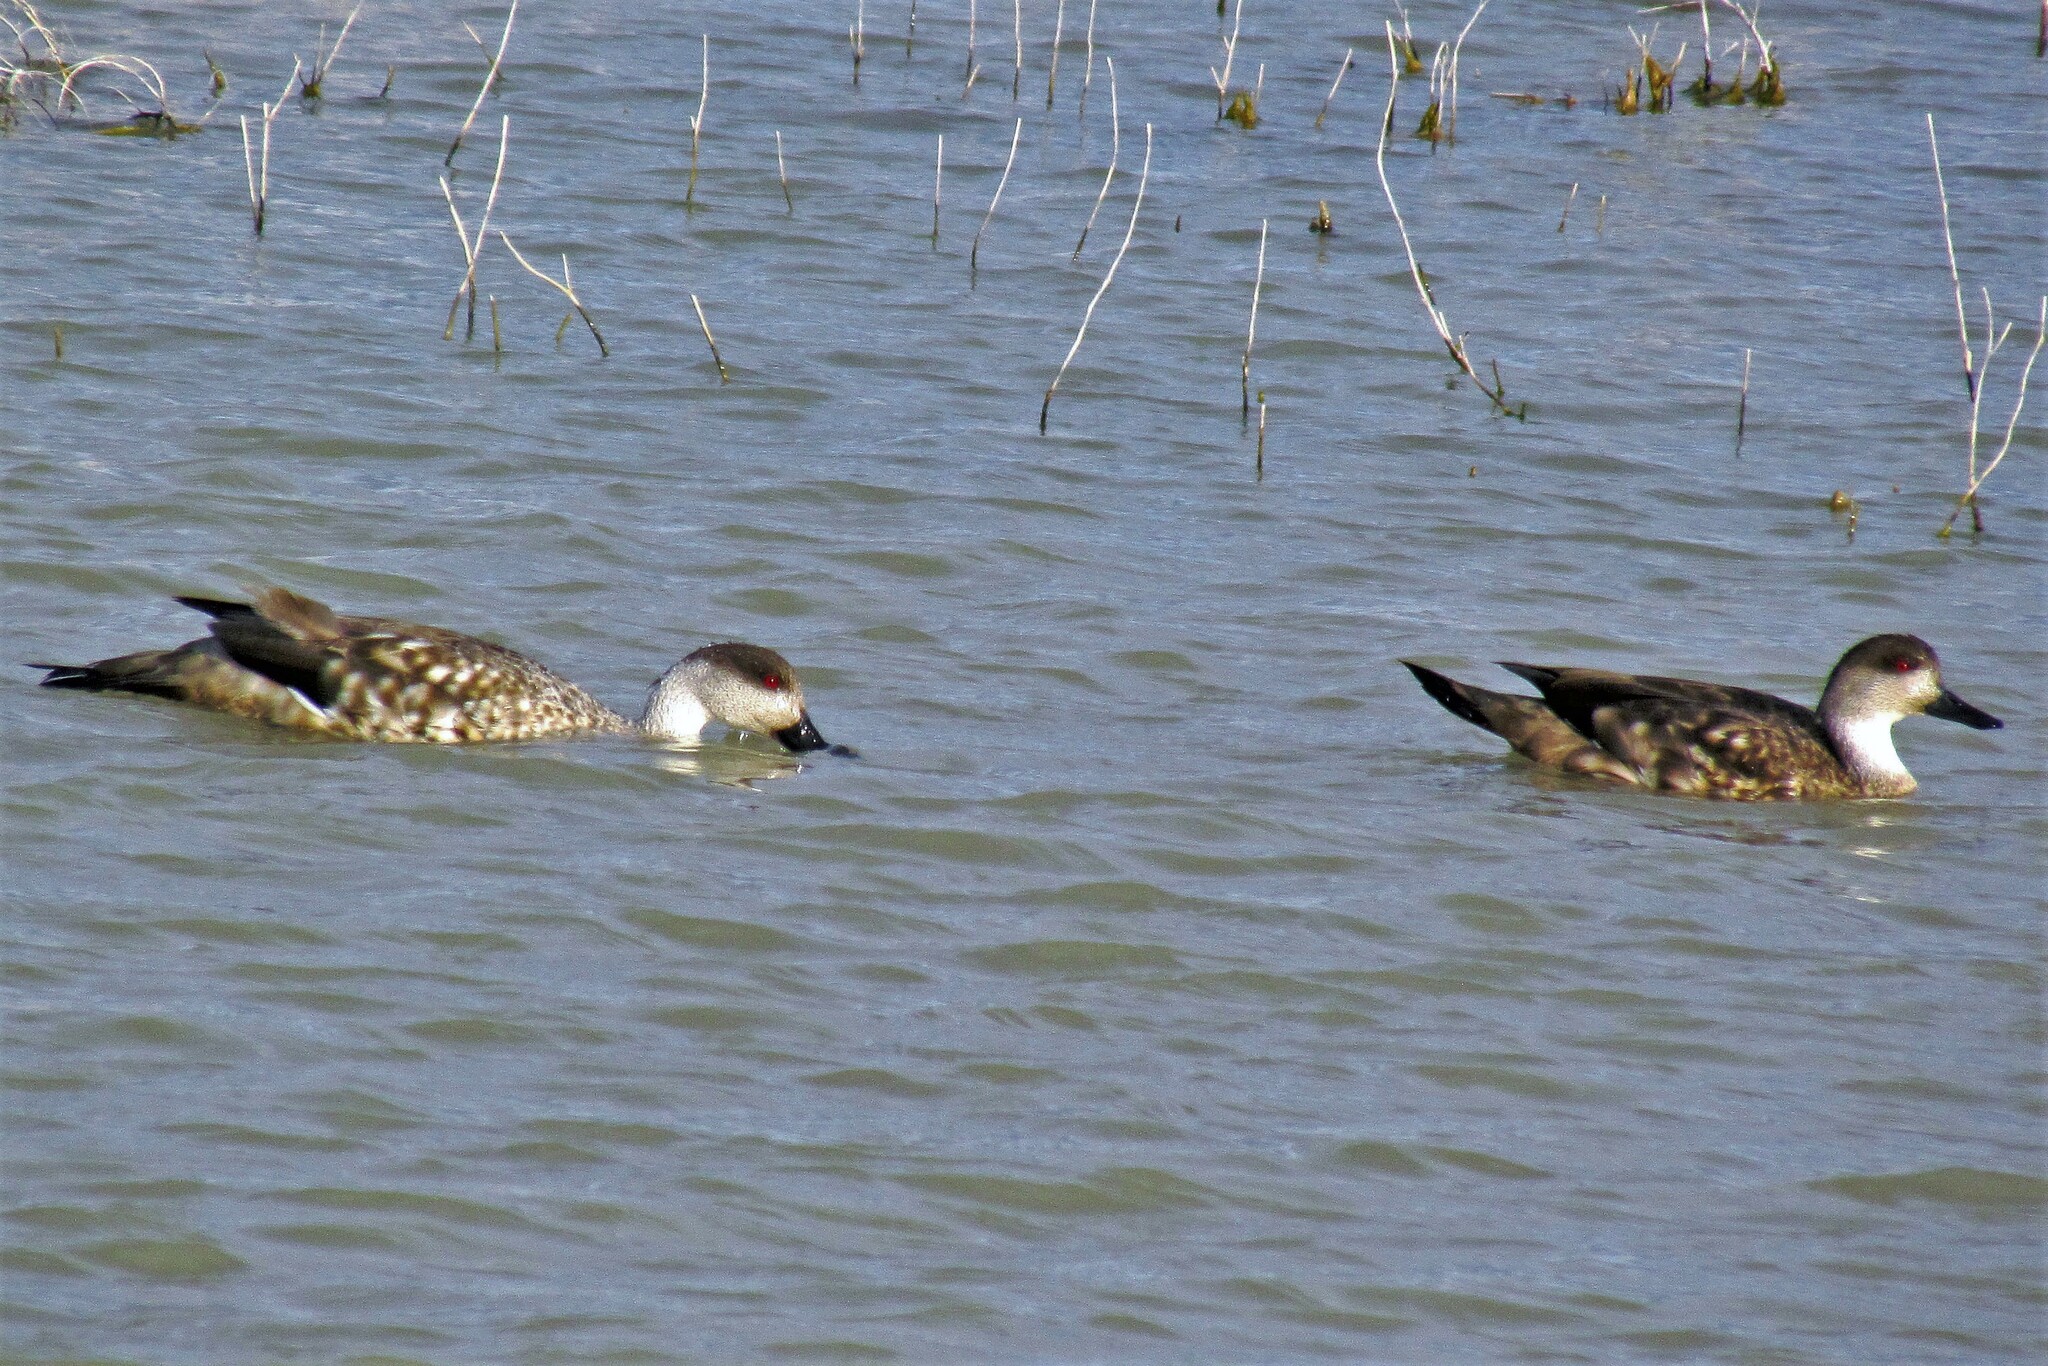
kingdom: Animalia
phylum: Chordata
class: Aves
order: Anseriformes
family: Anatidae
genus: Lophonetta
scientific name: Lophonetta specularioides
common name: Crested duck
